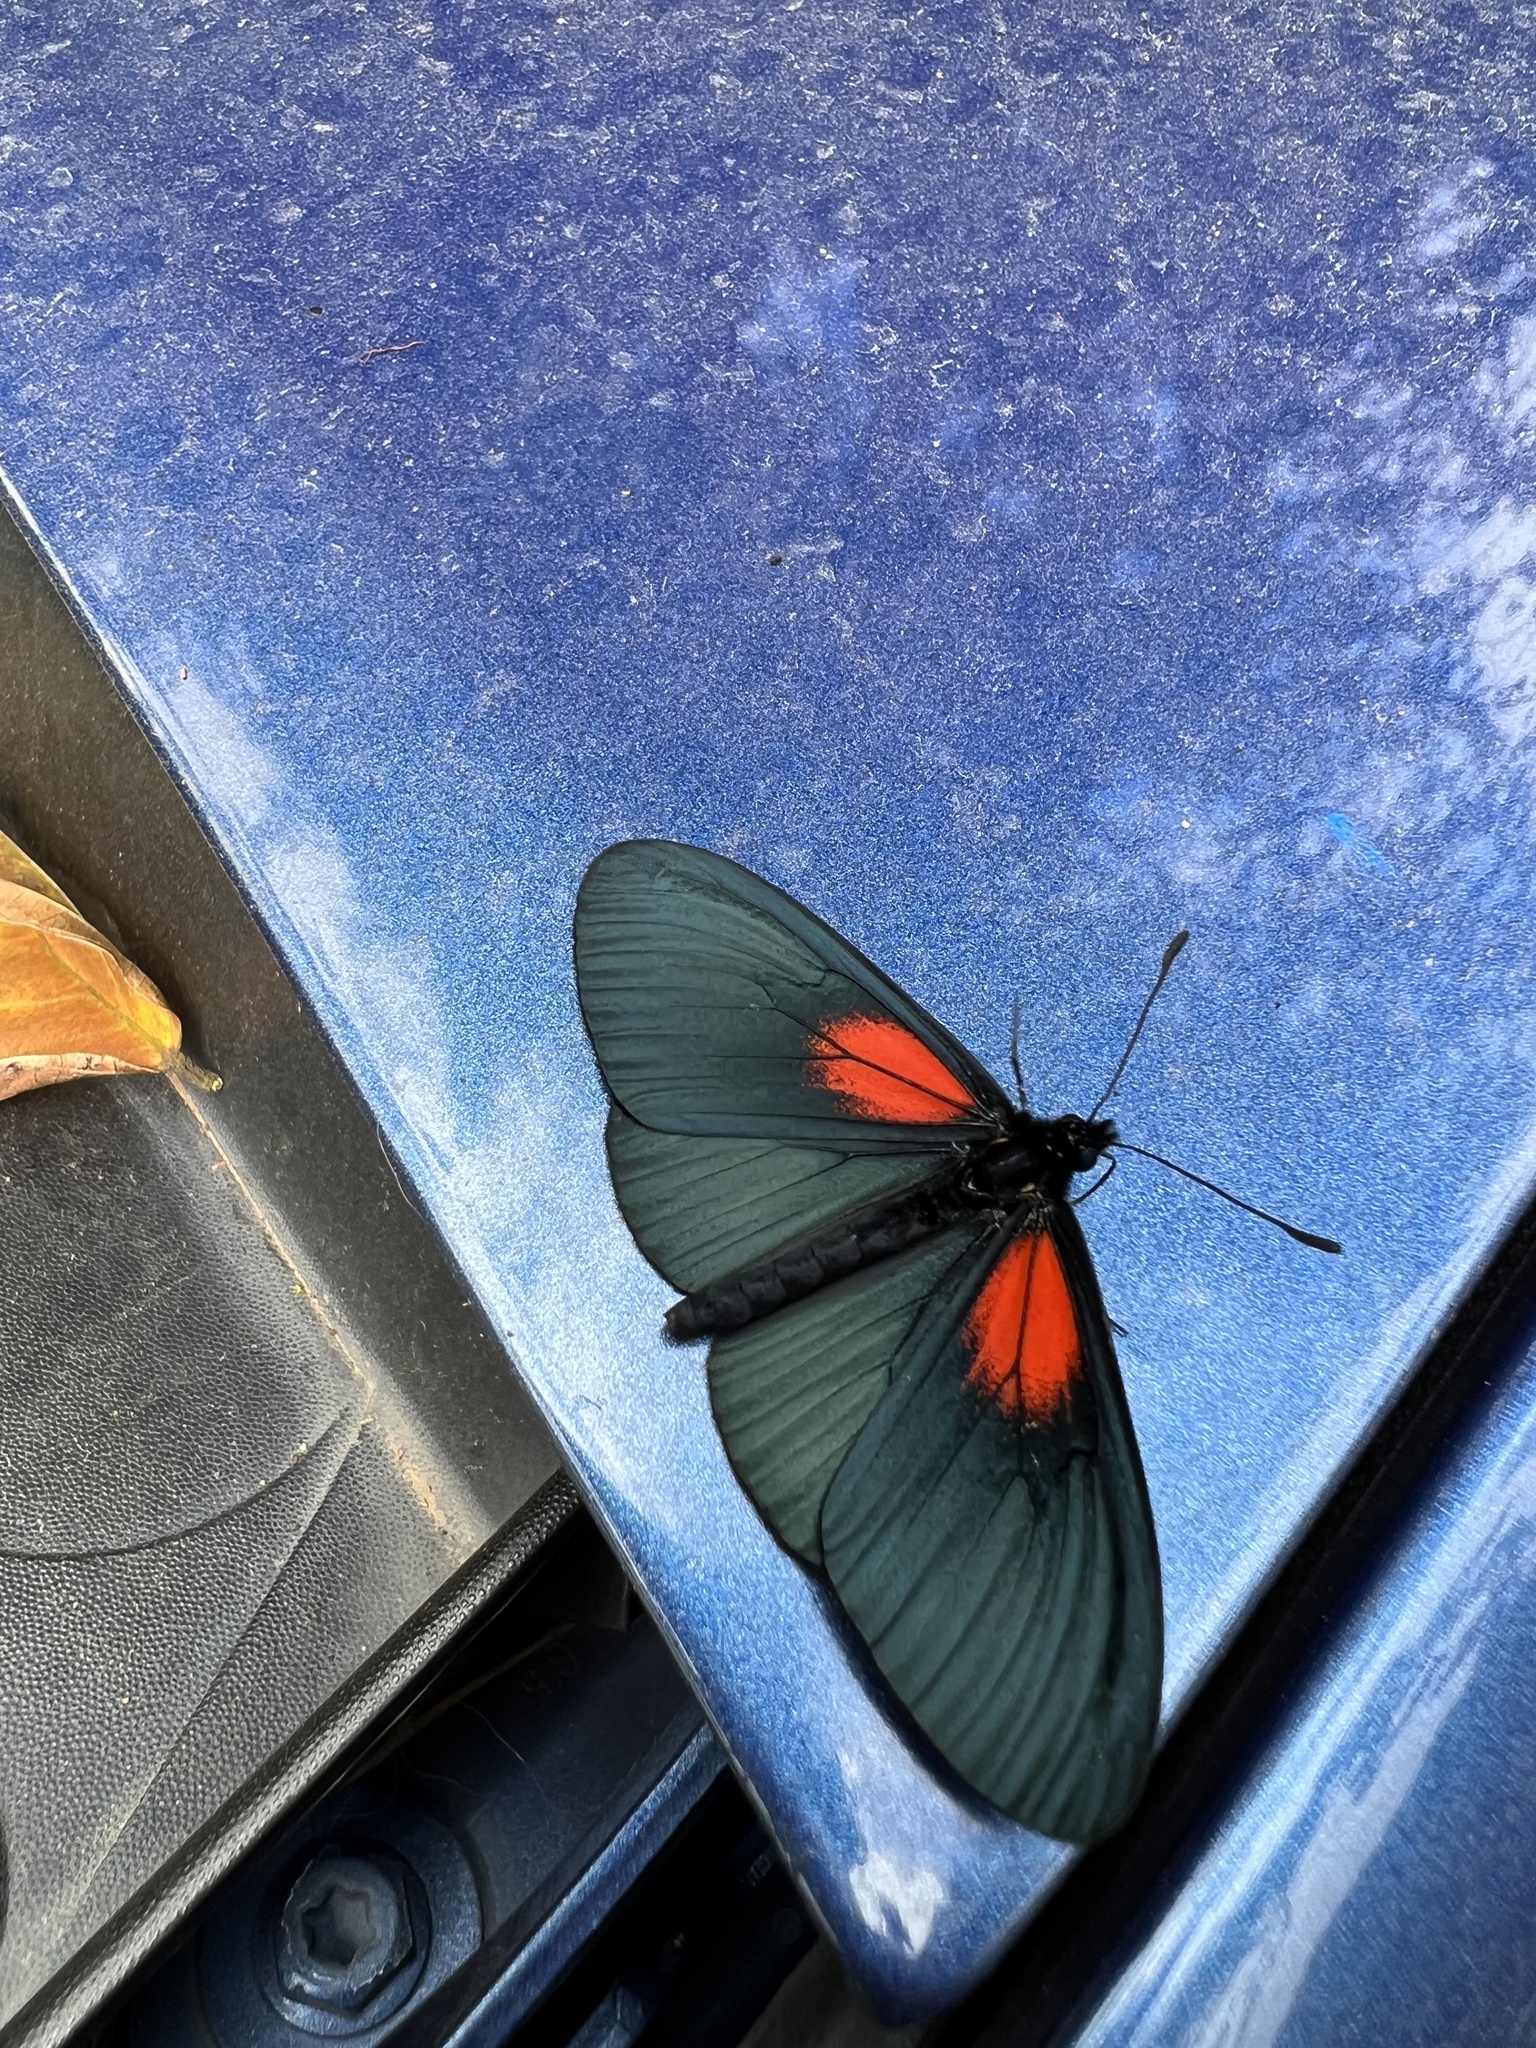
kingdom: Animalia
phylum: Arthropoda
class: Insecta
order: Lepidoptera
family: Nymphalidae
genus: Acraea
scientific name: Acraea Altinote ozomene
